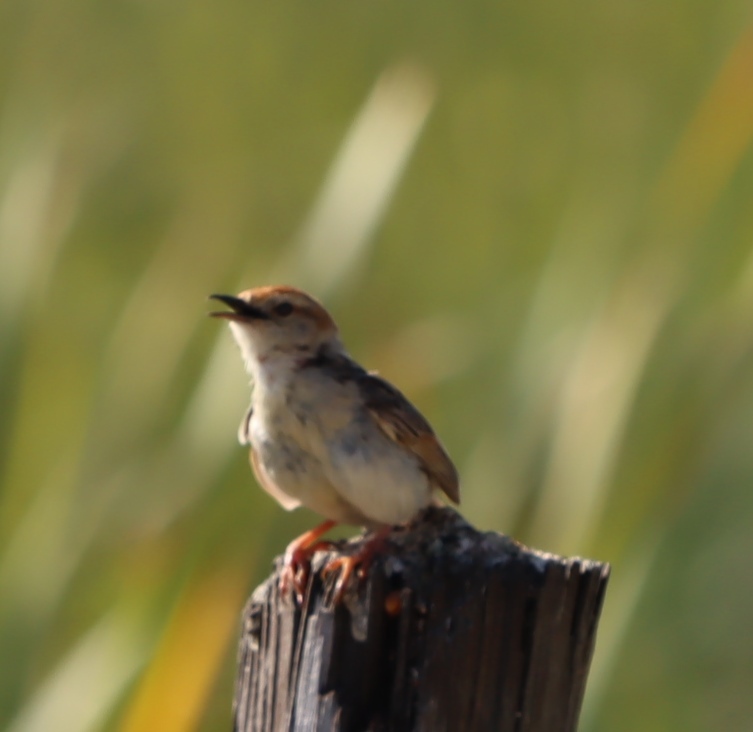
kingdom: Animalia
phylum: Chordata
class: Aves
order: Passeriformes
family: Cisticolidae
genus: Cisticola
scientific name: Cisticola tinniens
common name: Levaillant's cisticola
